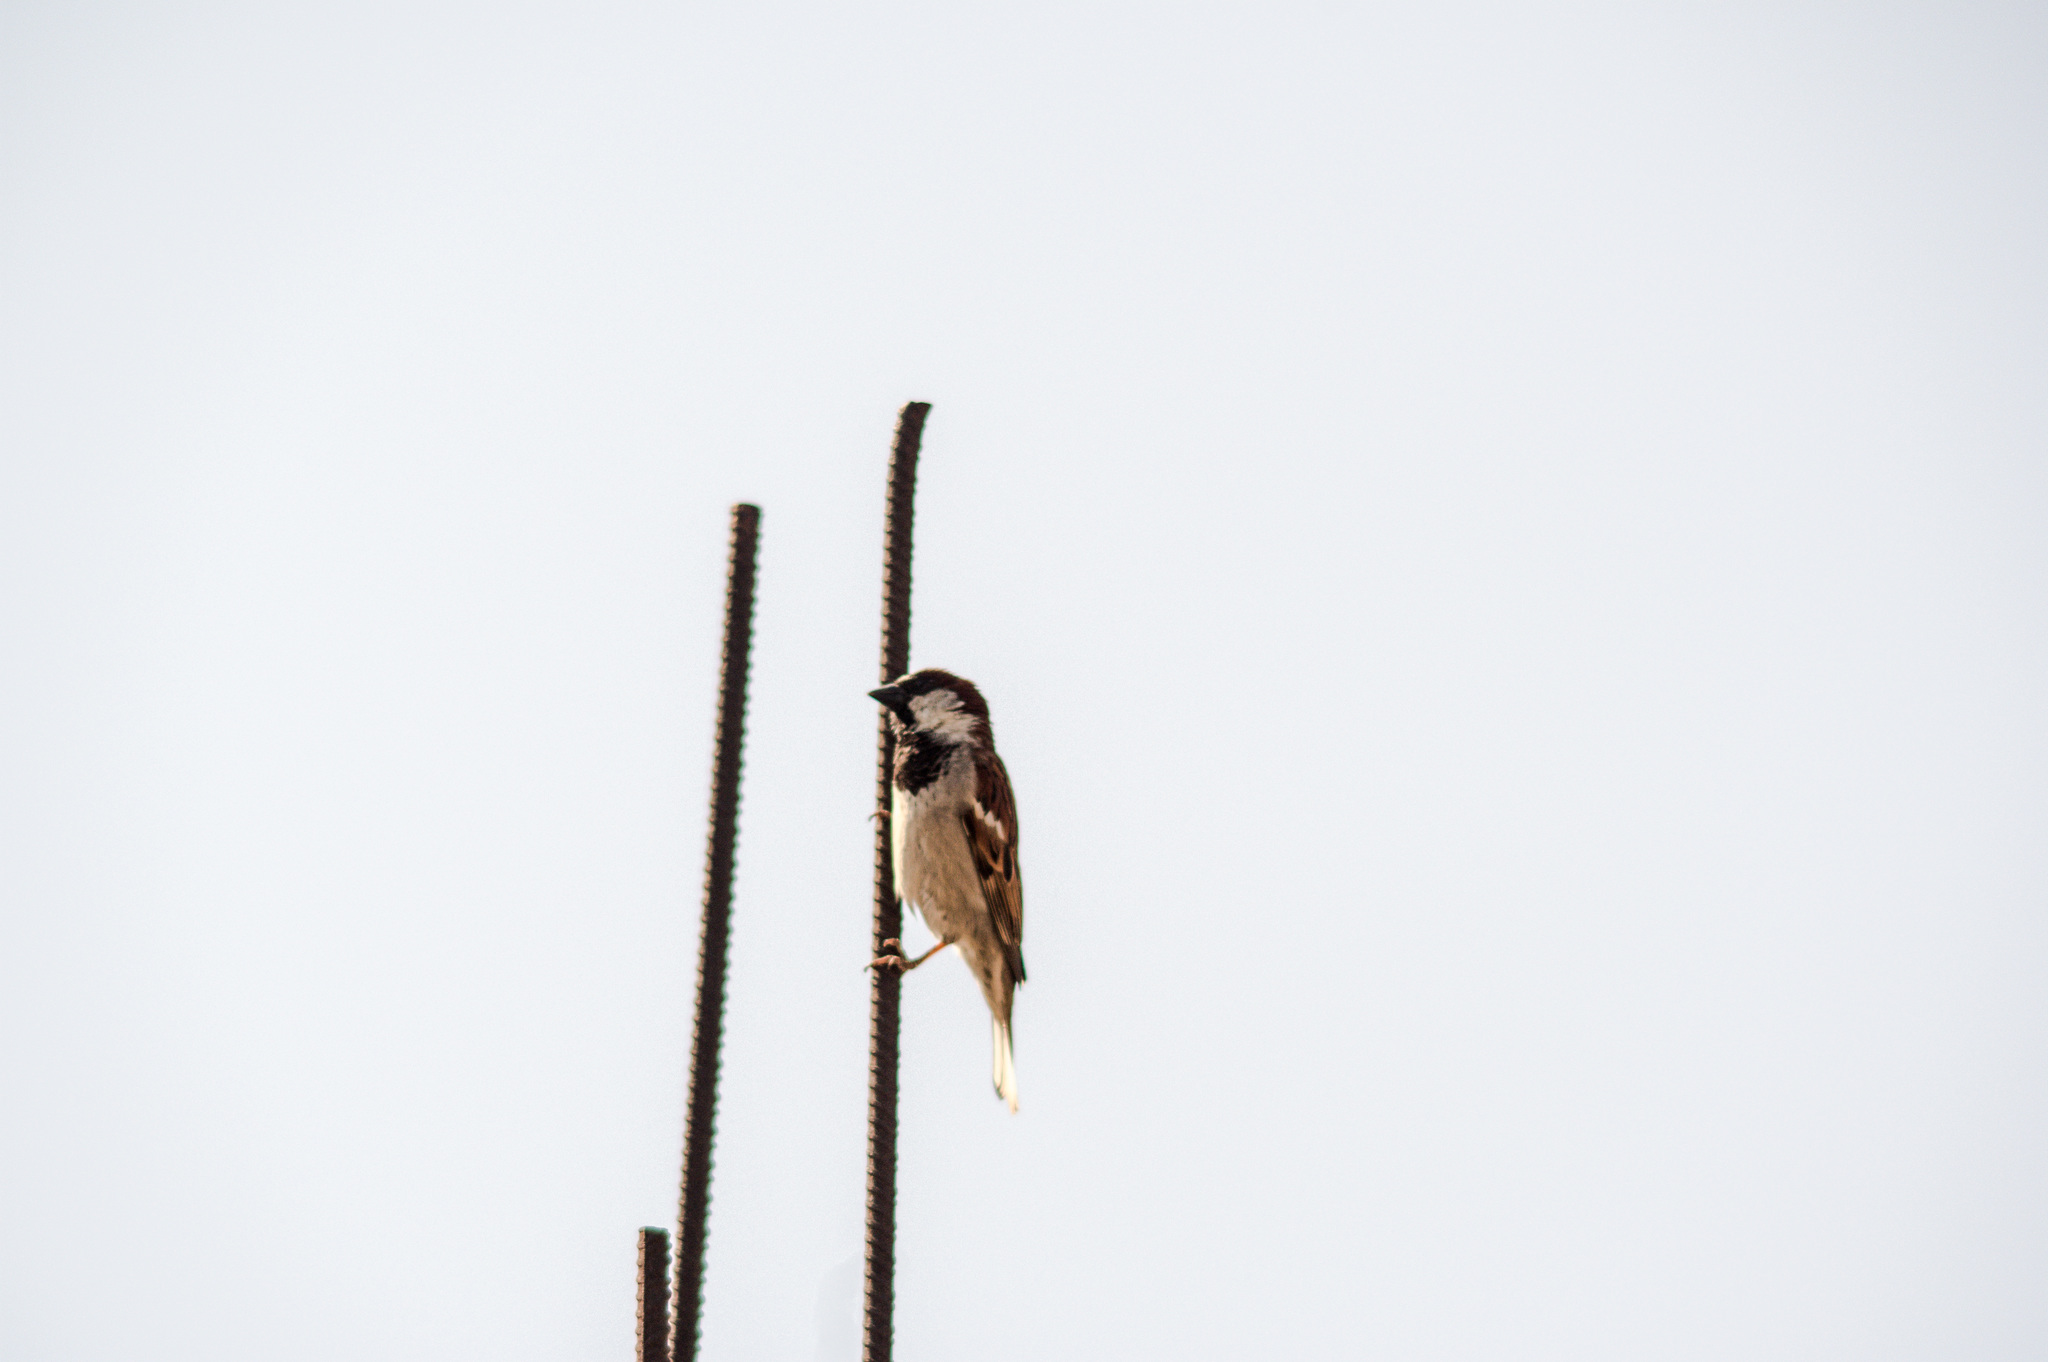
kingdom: Animalia
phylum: Chordata
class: Aves
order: Passeriformes
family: Passeridae
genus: Passer
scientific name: Passer domesticus
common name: House sparrow
